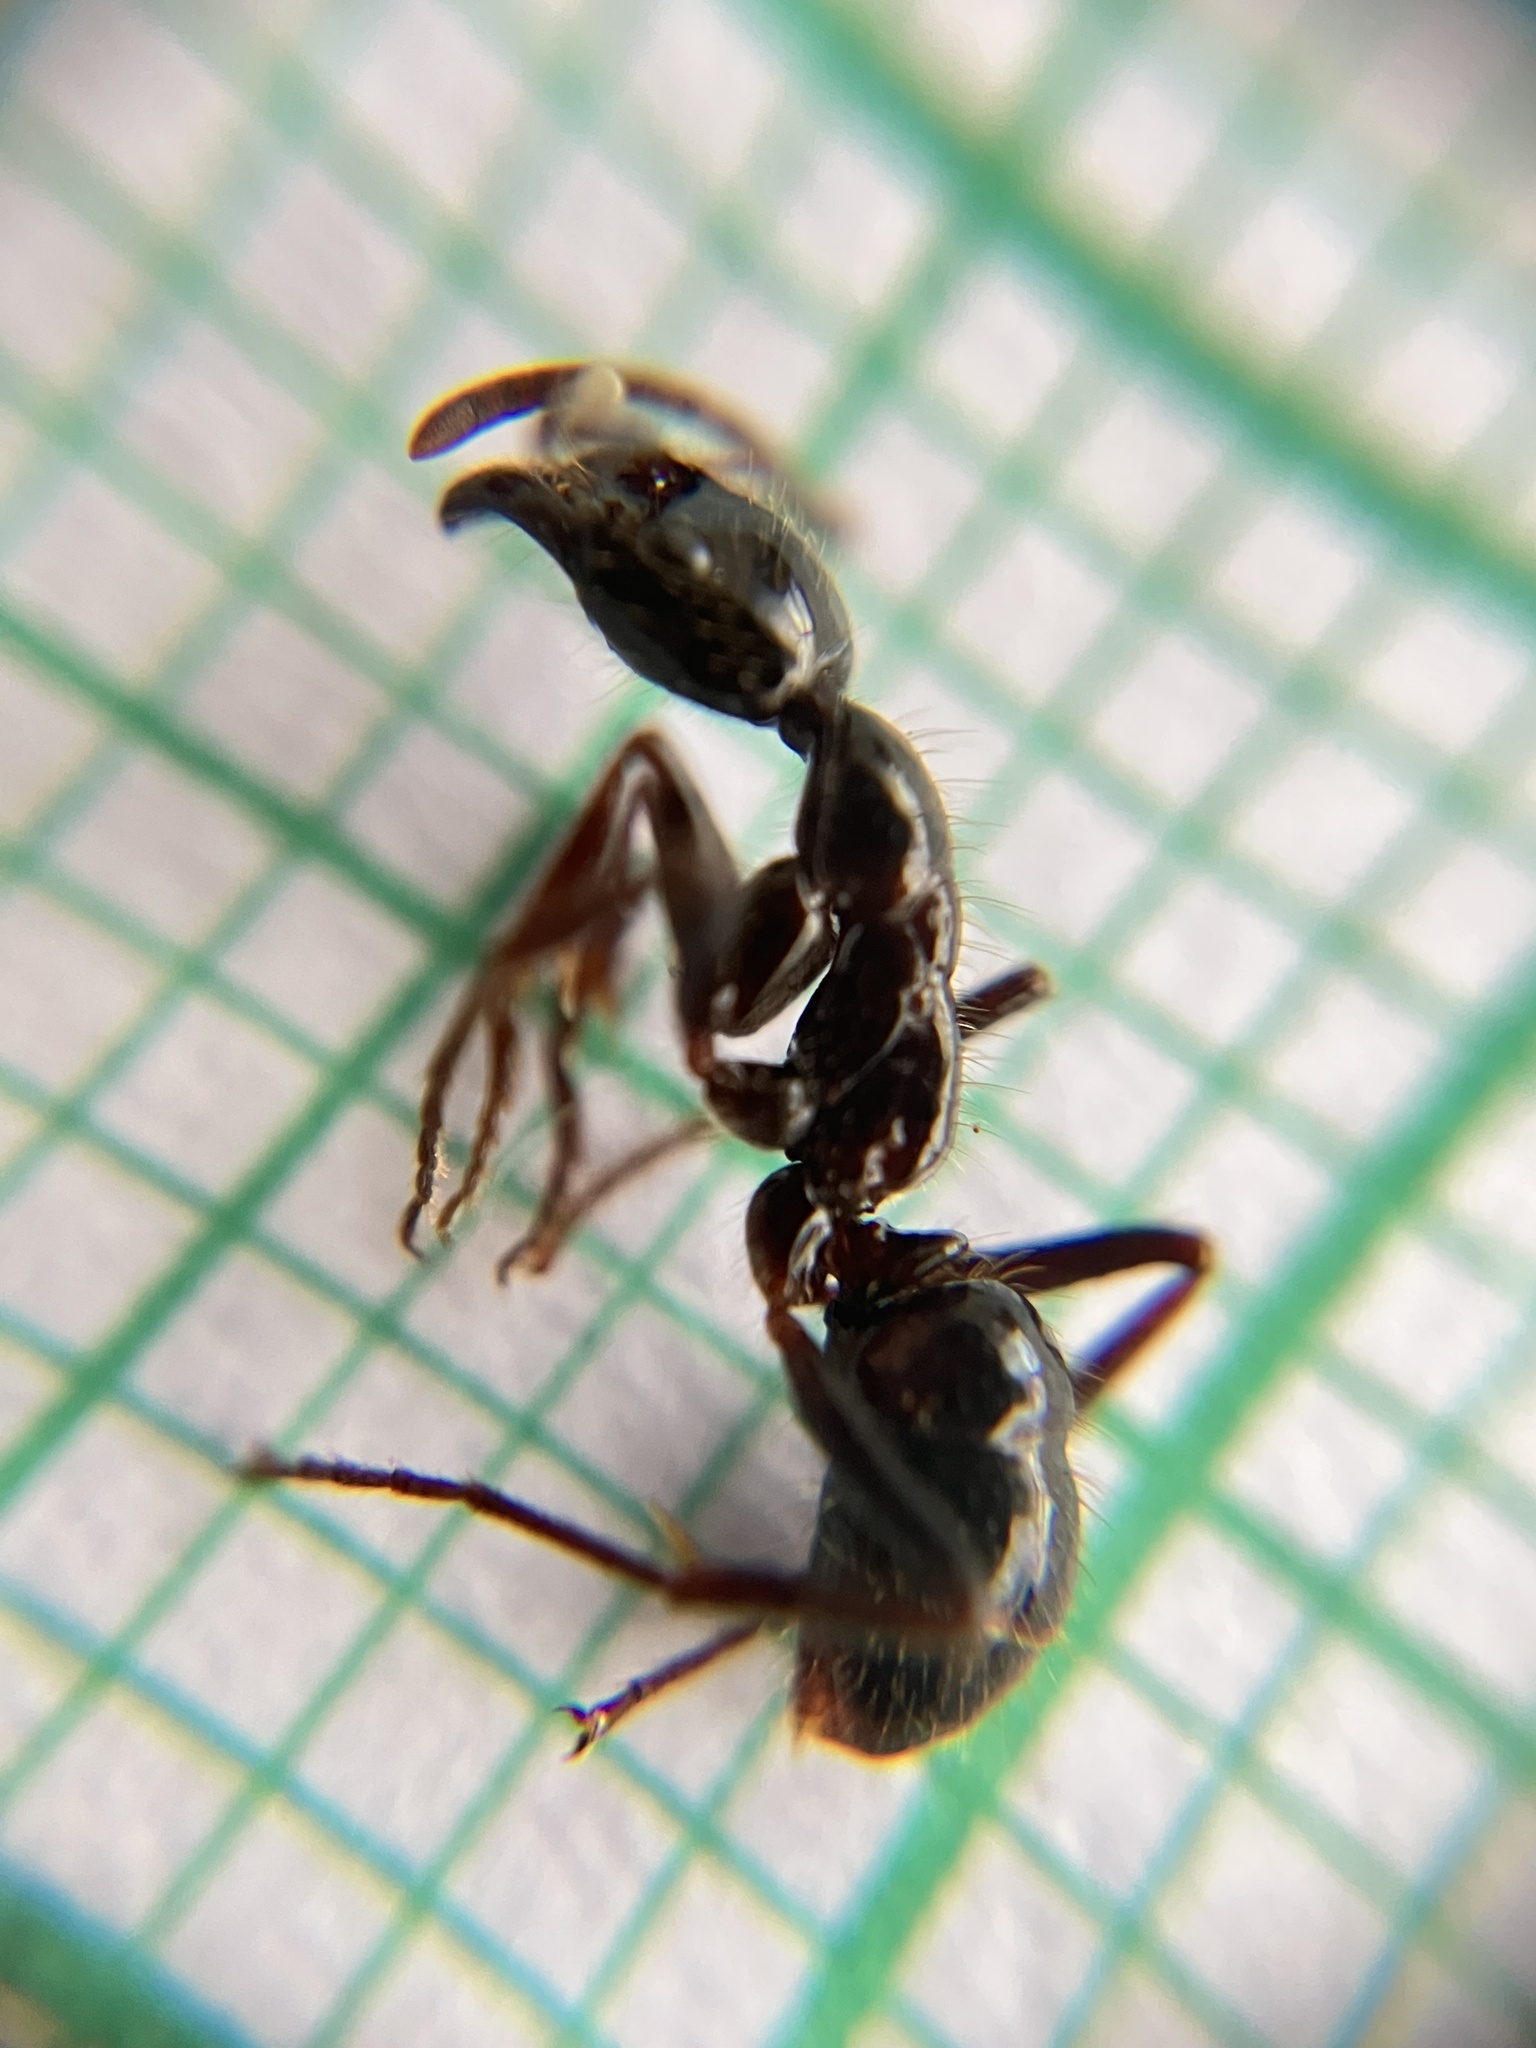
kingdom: Animalia
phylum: Arthropoda
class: Insecta
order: Hymenoptera
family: Formicidae
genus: Leptogenys
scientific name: Leptogenys processionalis
